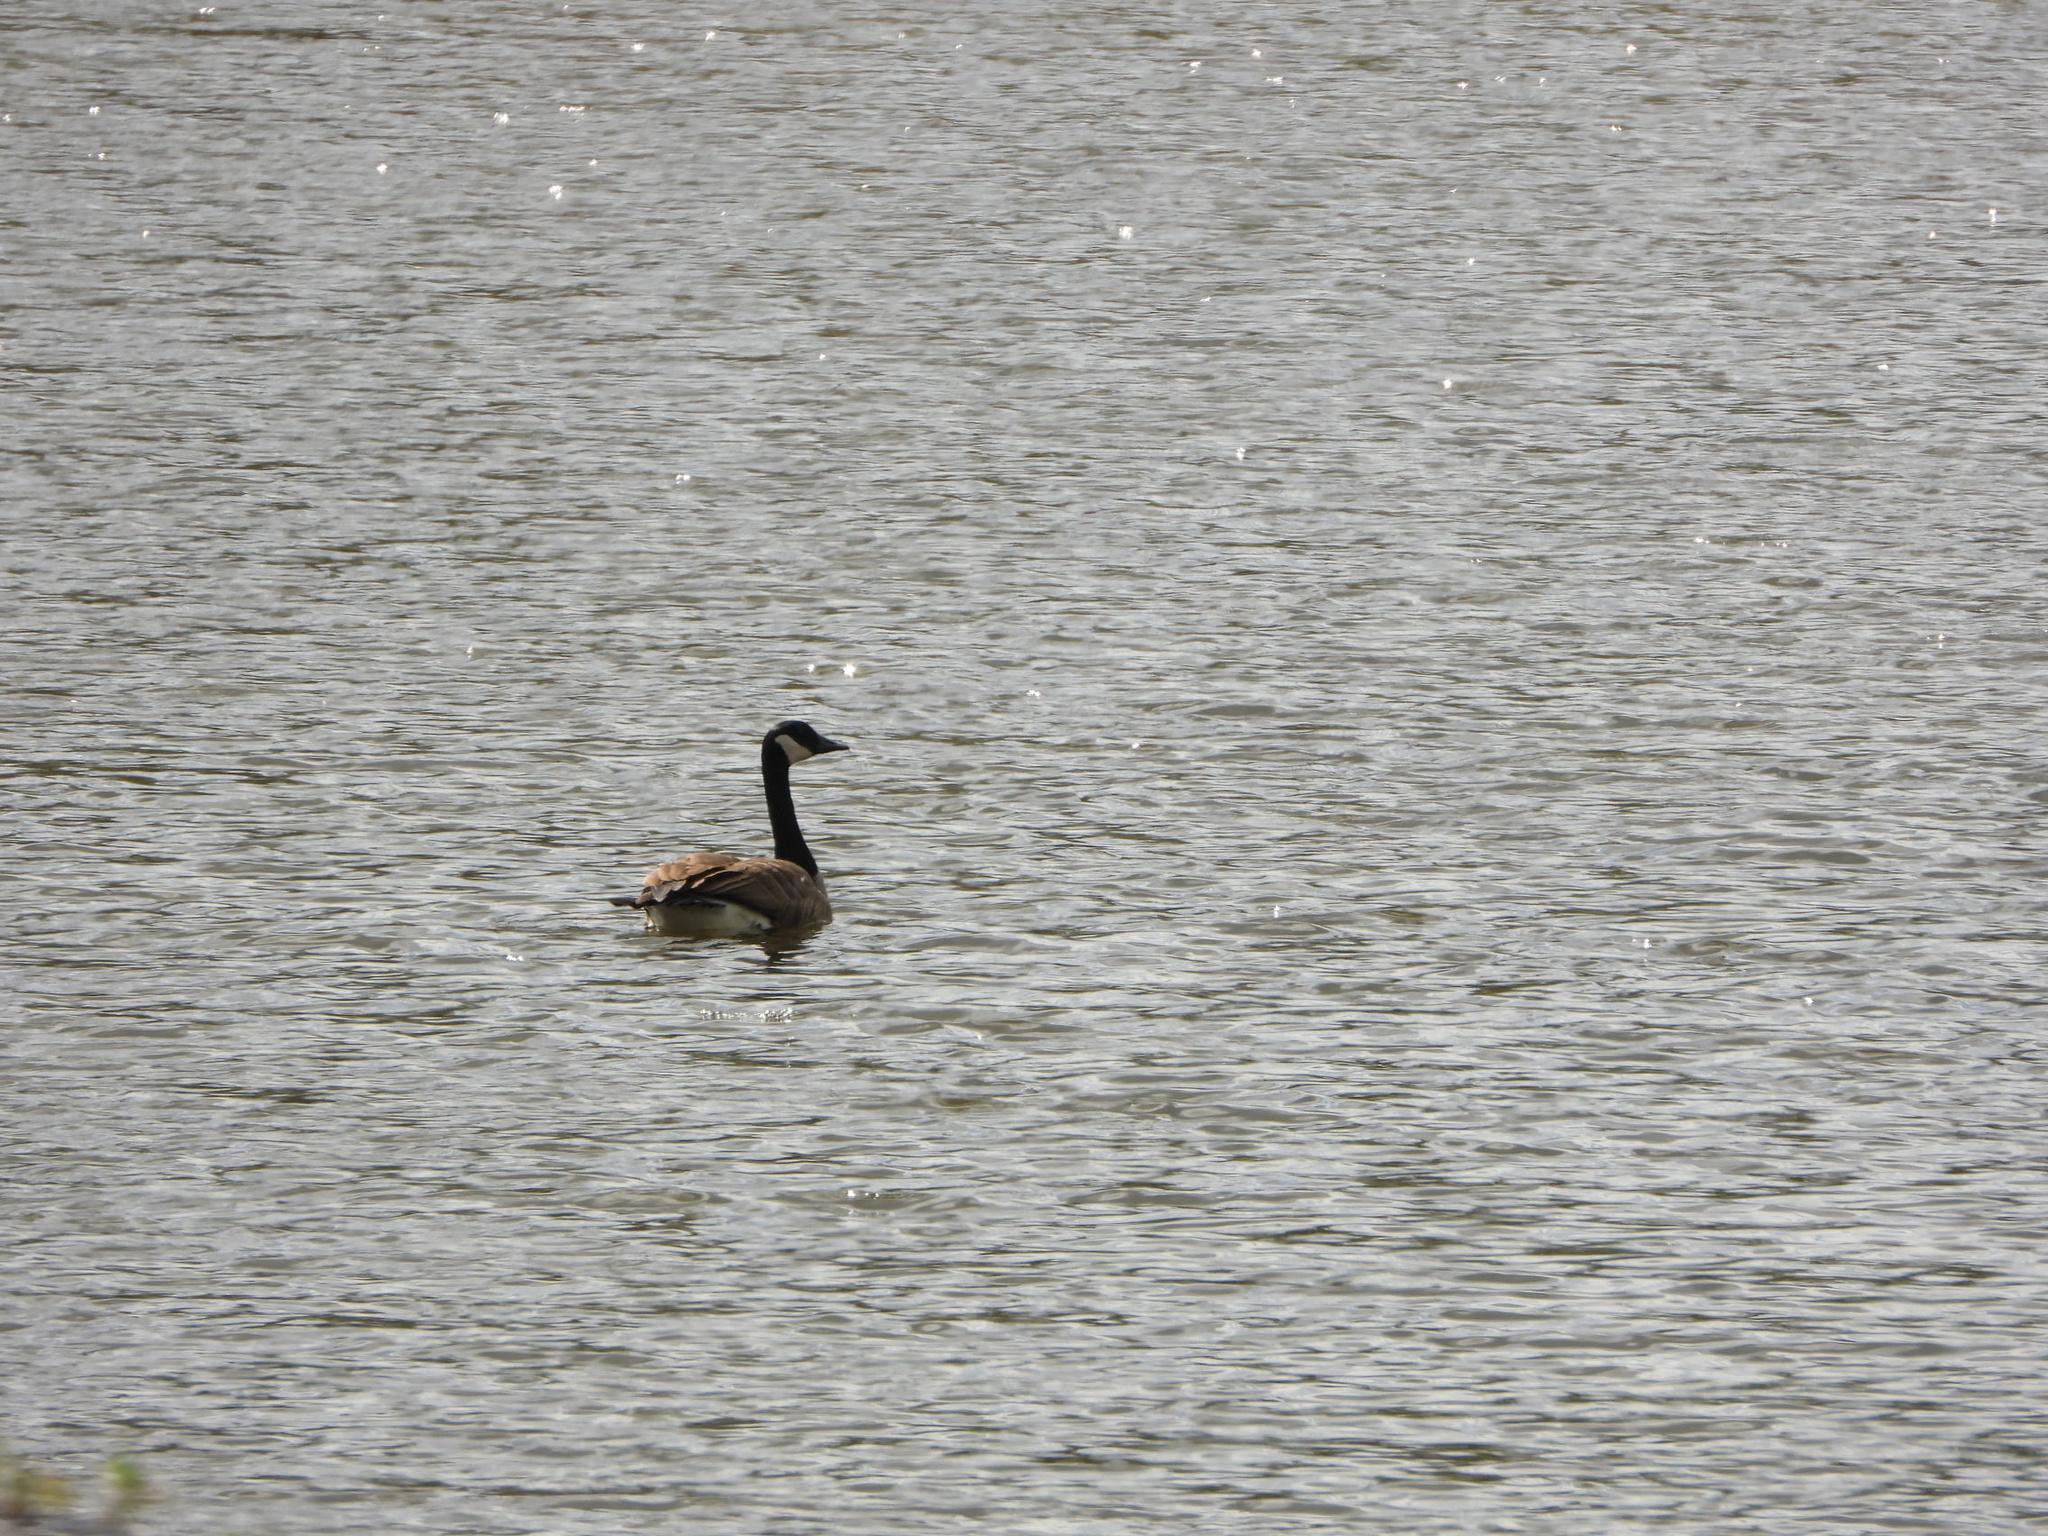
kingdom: Animalia
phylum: Chordata
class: Aves
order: Anseriformes
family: Anatidae
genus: Branta
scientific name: Branta canadensis
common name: Canada goose
